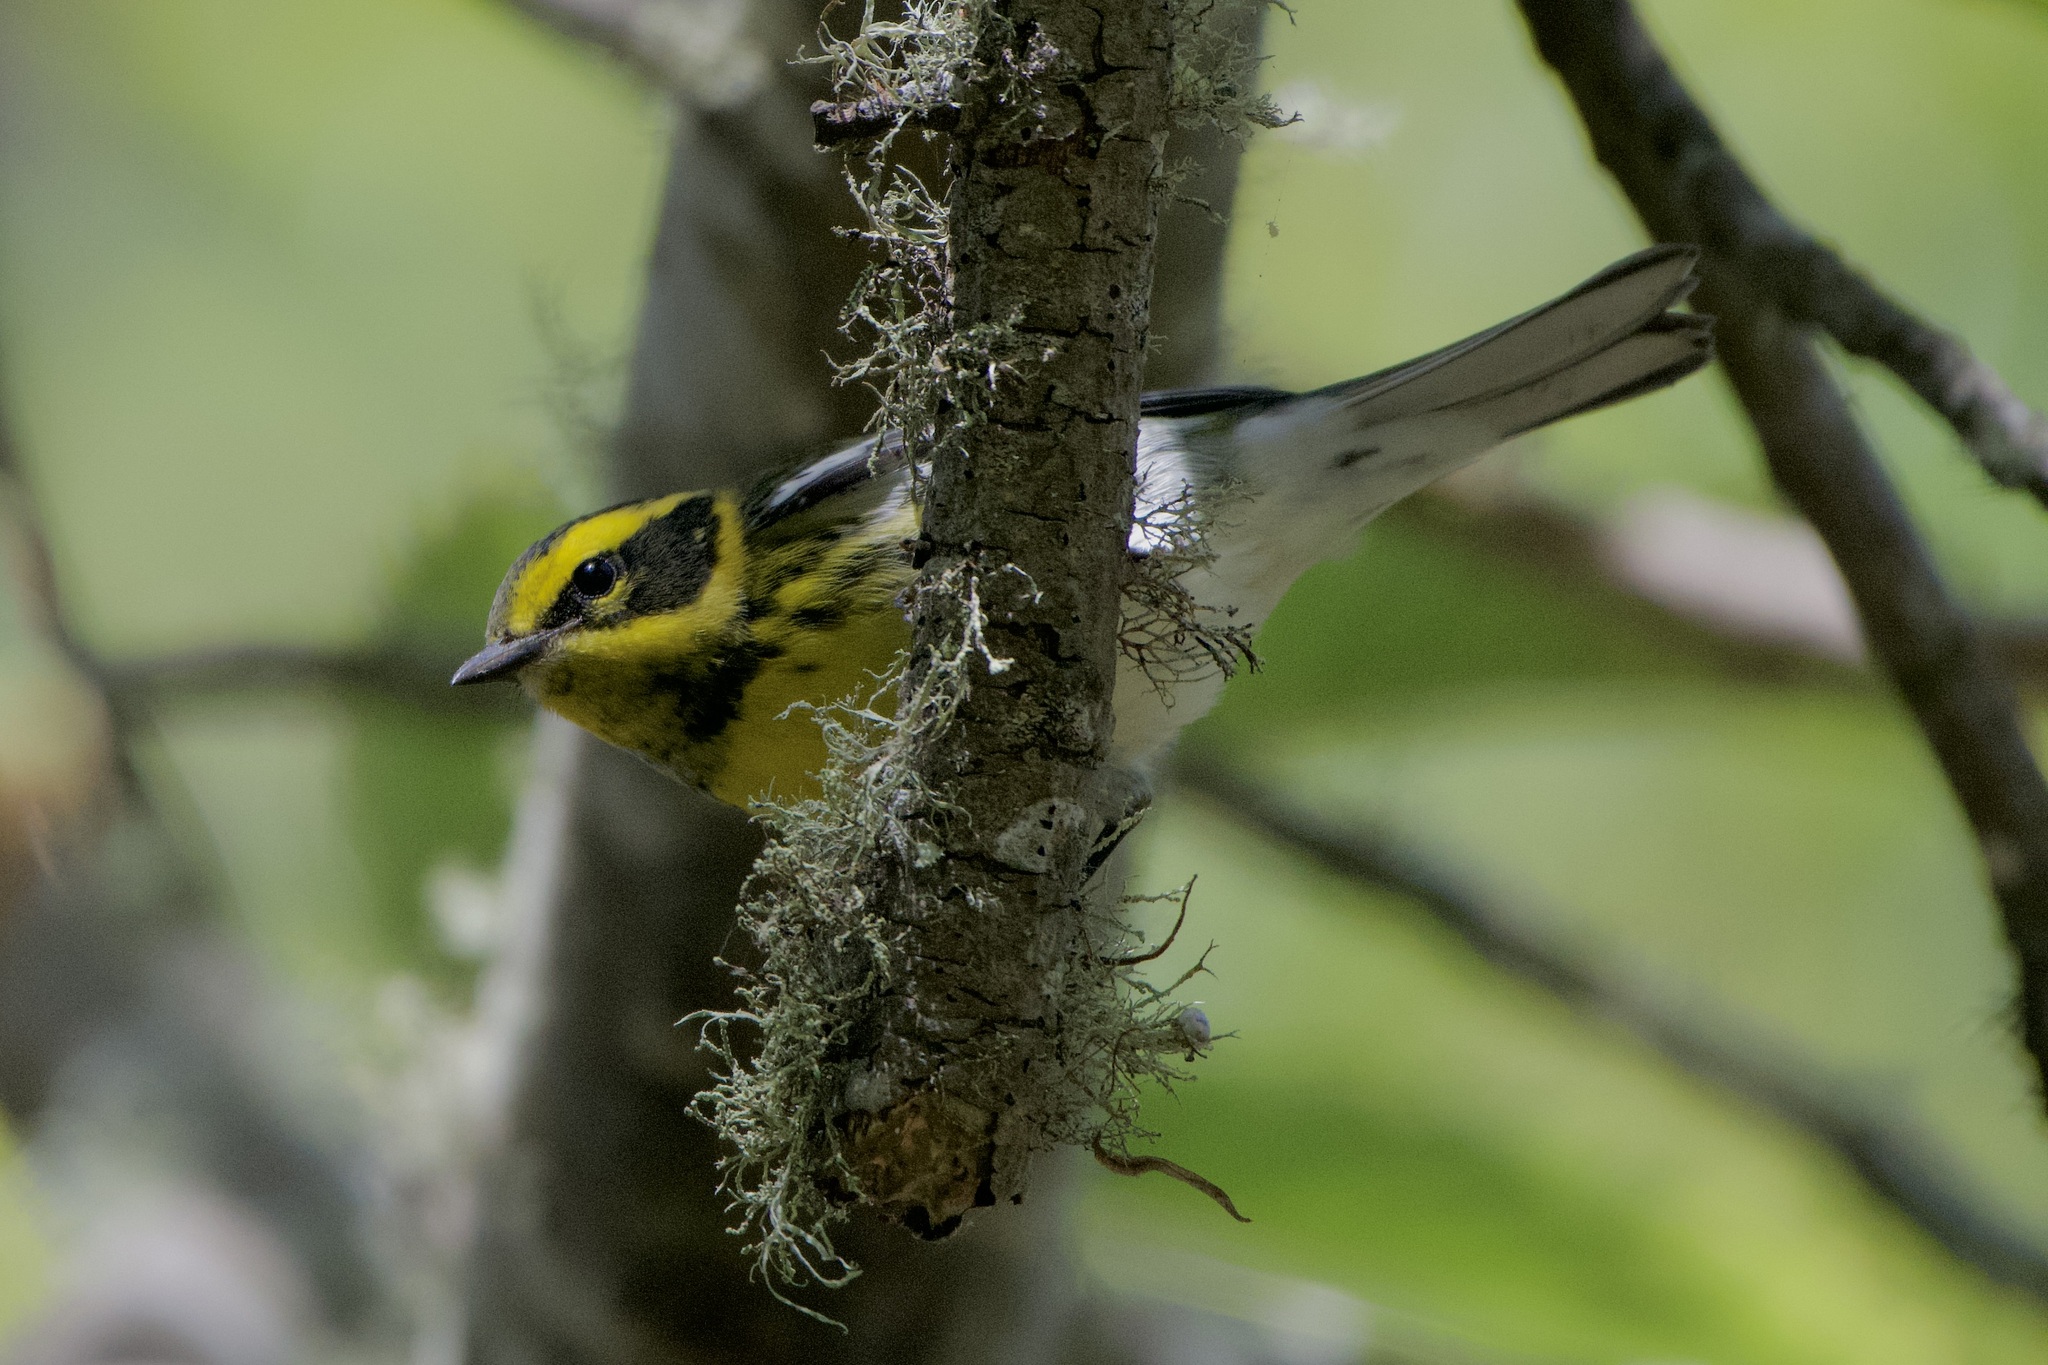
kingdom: Animalia
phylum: Chordata
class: Aves
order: Passeriformes
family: Parulidae
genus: Setophaga
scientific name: Setophaga townsendi
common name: Townsend's warbler
